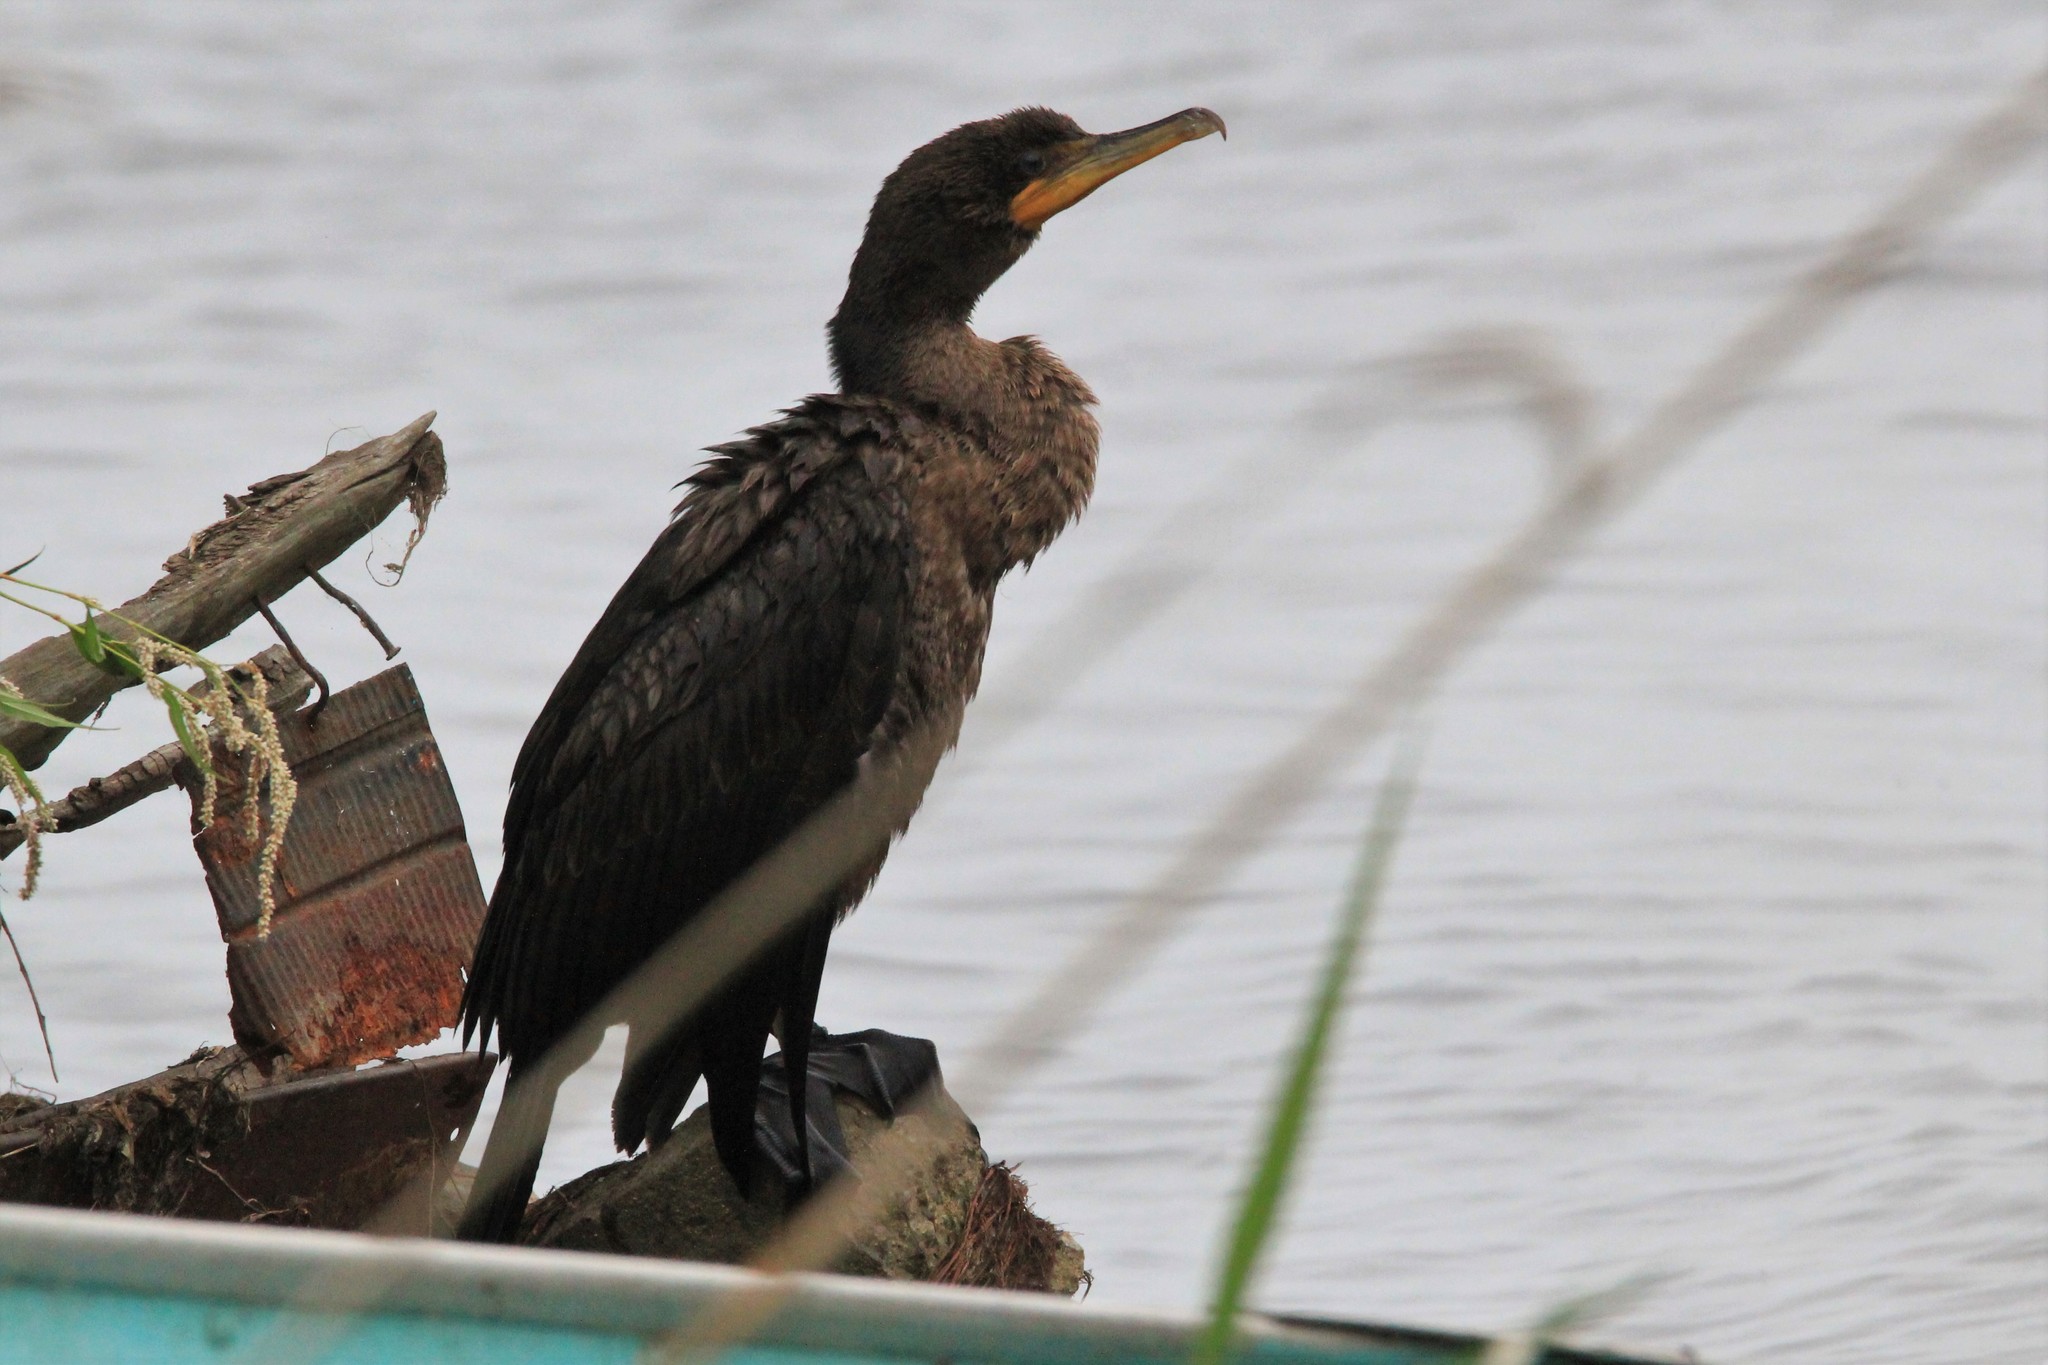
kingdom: Animalia
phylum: Chordata
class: Aves
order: Suliformes
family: Phalacrocoracidae
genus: Phalacrocorax
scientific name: Phalacrocorax auritus
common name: Double-crested cormorant
